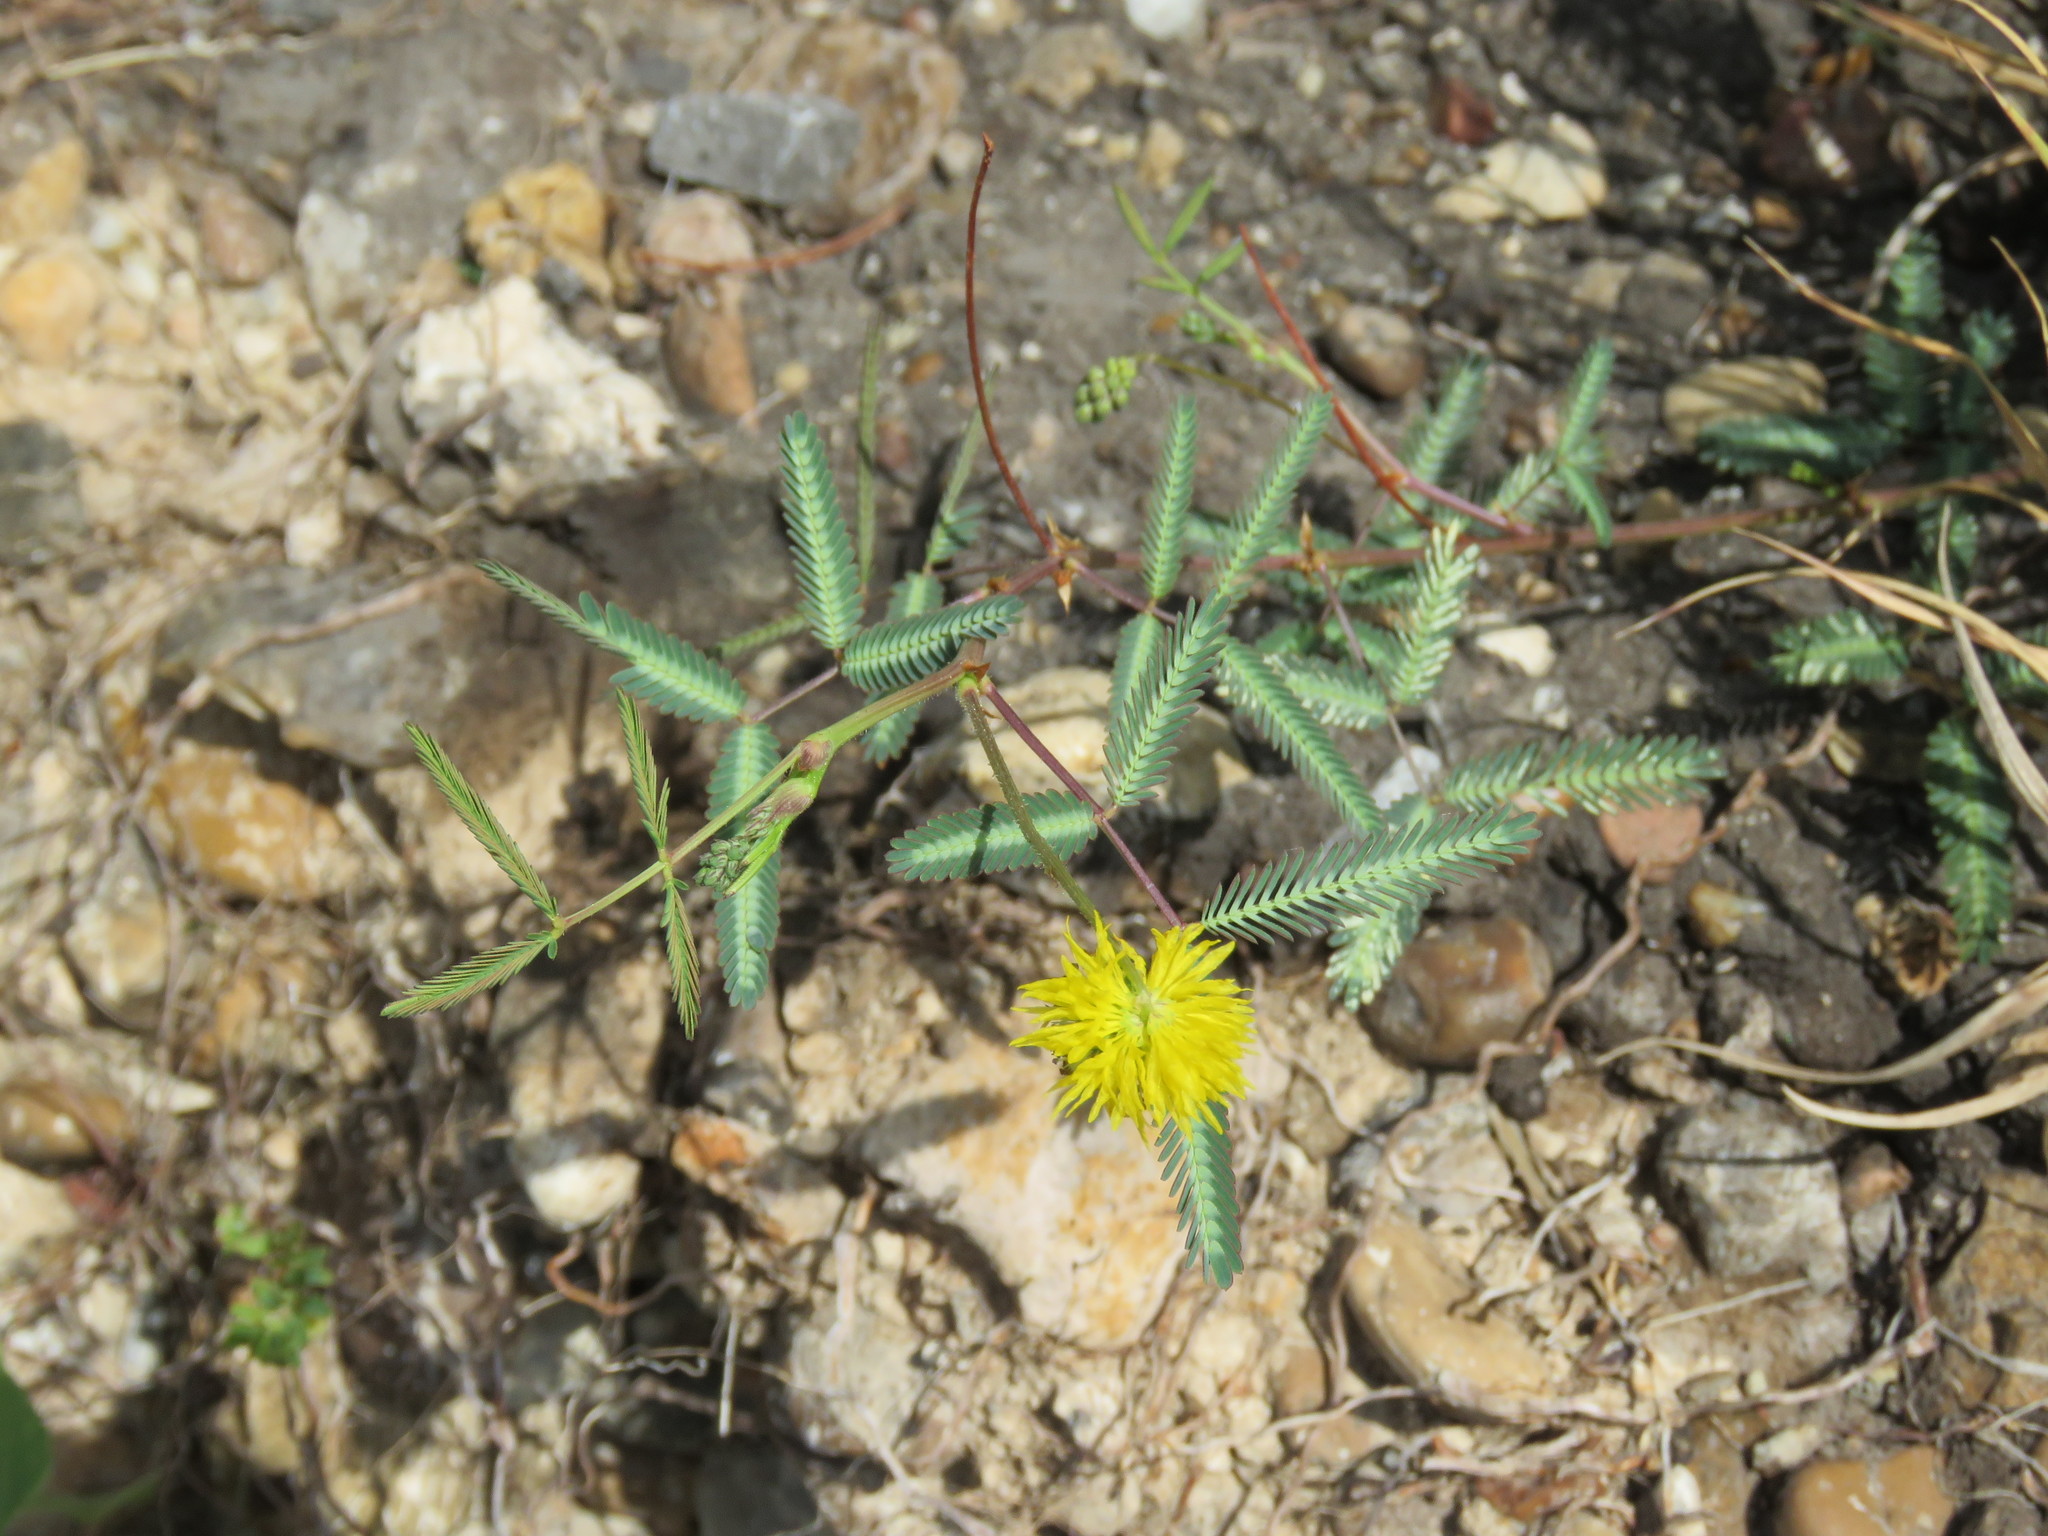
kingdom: Plantae
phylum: Tracheophyta
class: Magnoliopsida
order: Fabales
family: Fabaceae
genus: Neptunia
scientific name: Neptunia plena
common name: Dead and awake
